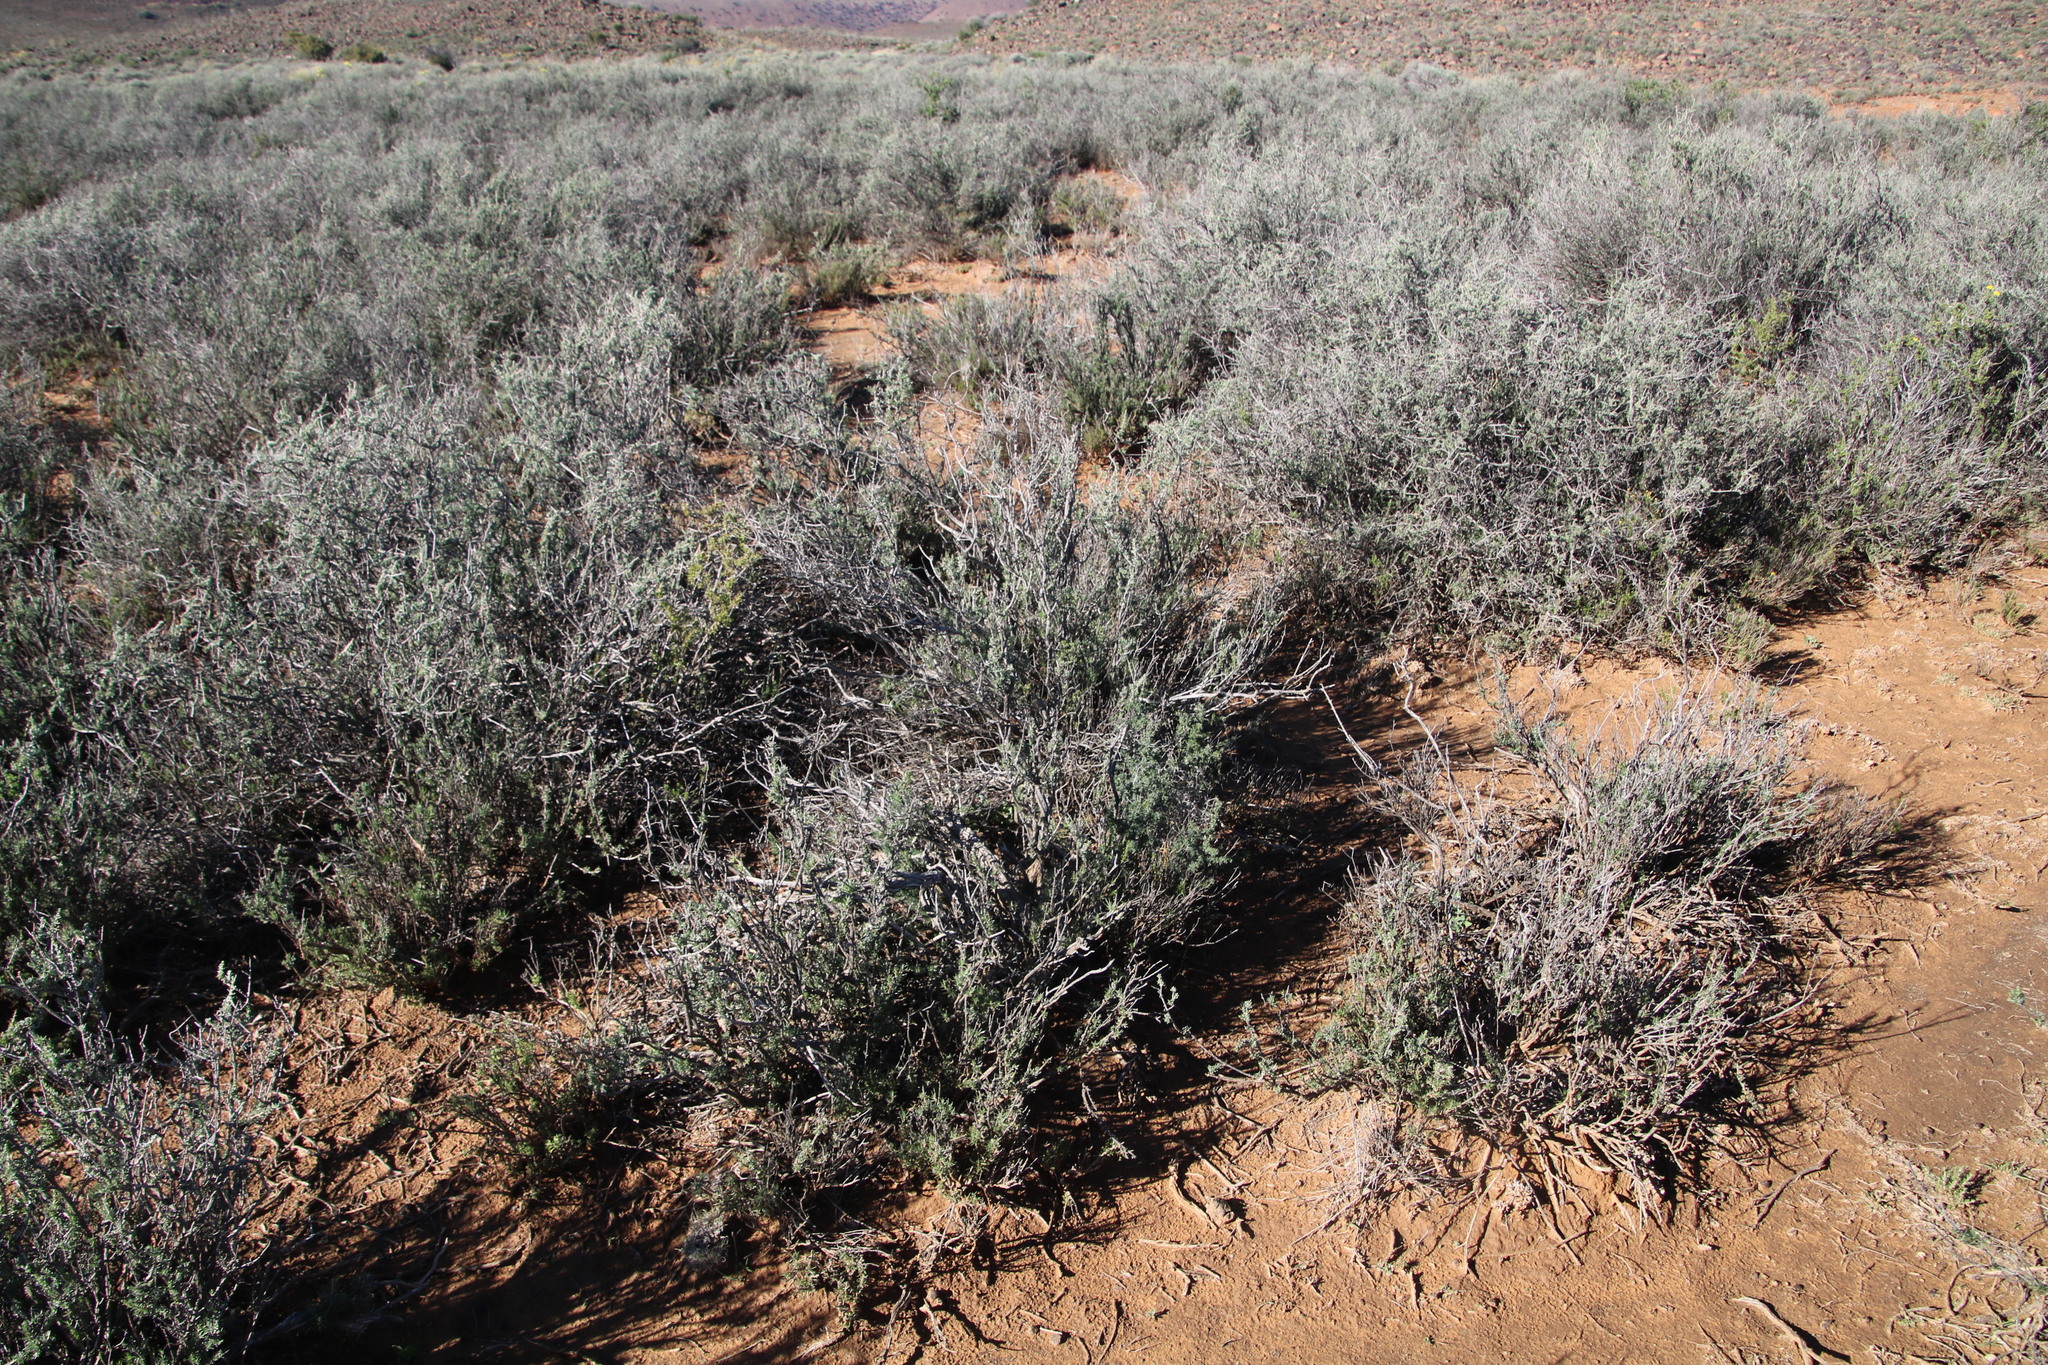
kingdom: Plantae
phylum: Tracheophyta
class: Liliopsida
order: Asparagales
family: Asparagaceae
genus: Asparagus
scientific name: Asparagus suaveolens
